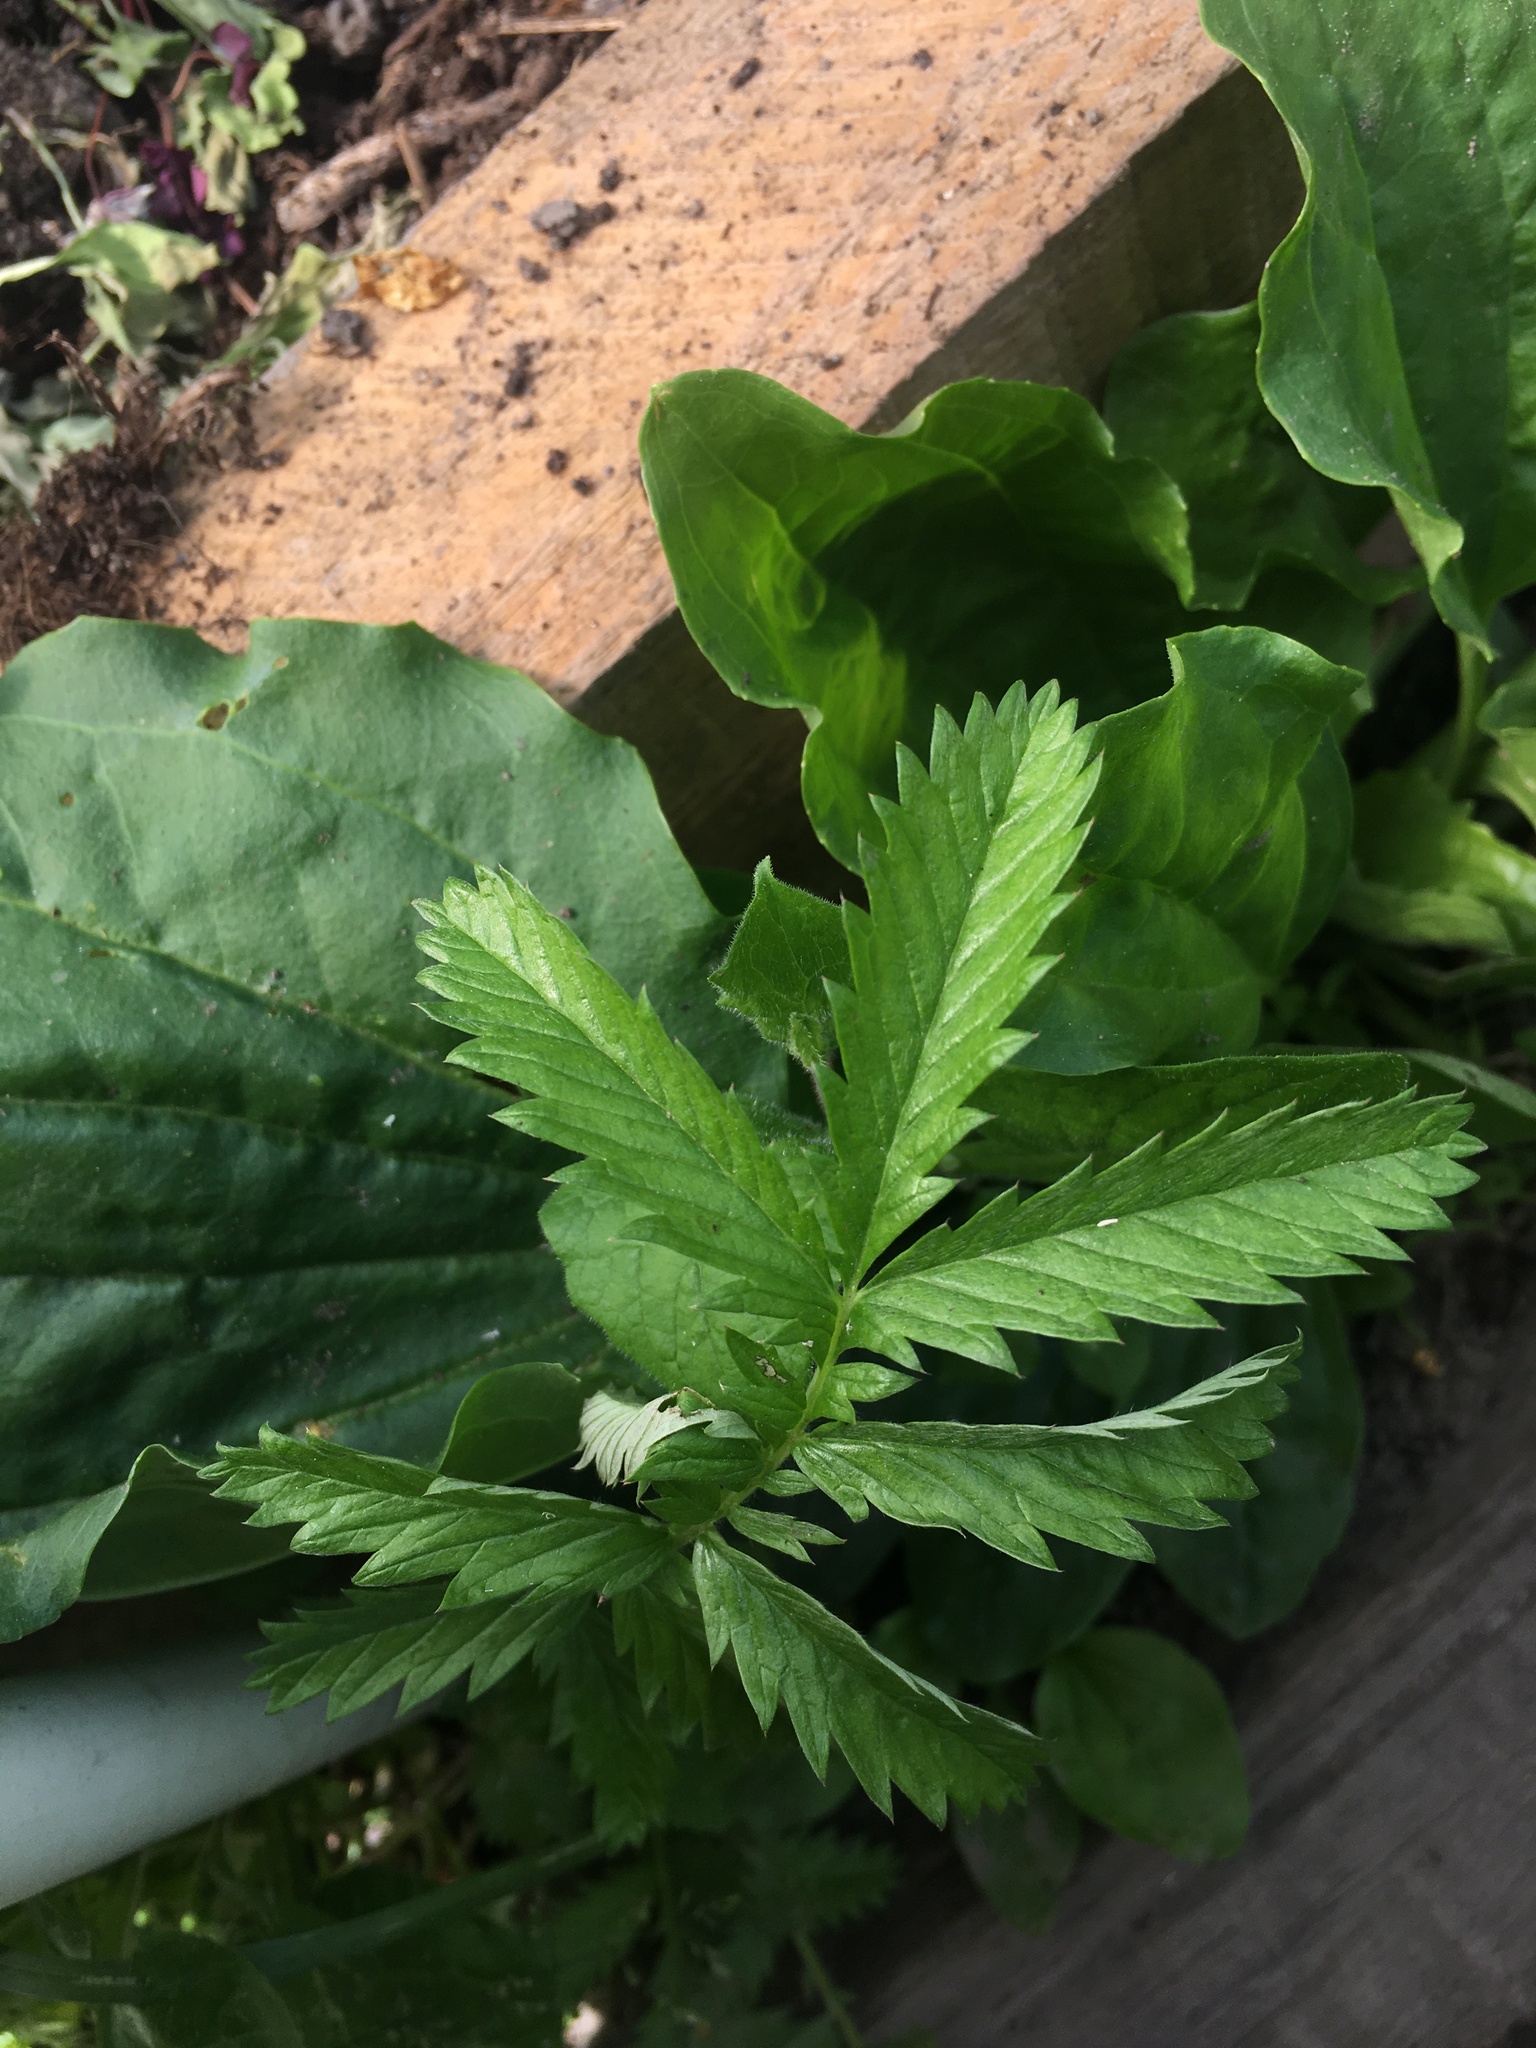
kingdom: Plantae
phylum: Tracheophyta
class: Magnoliopsida
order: Rosales
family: Rosaceae
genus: Argentina
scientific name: Argentina anserina
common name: Common silverweed
